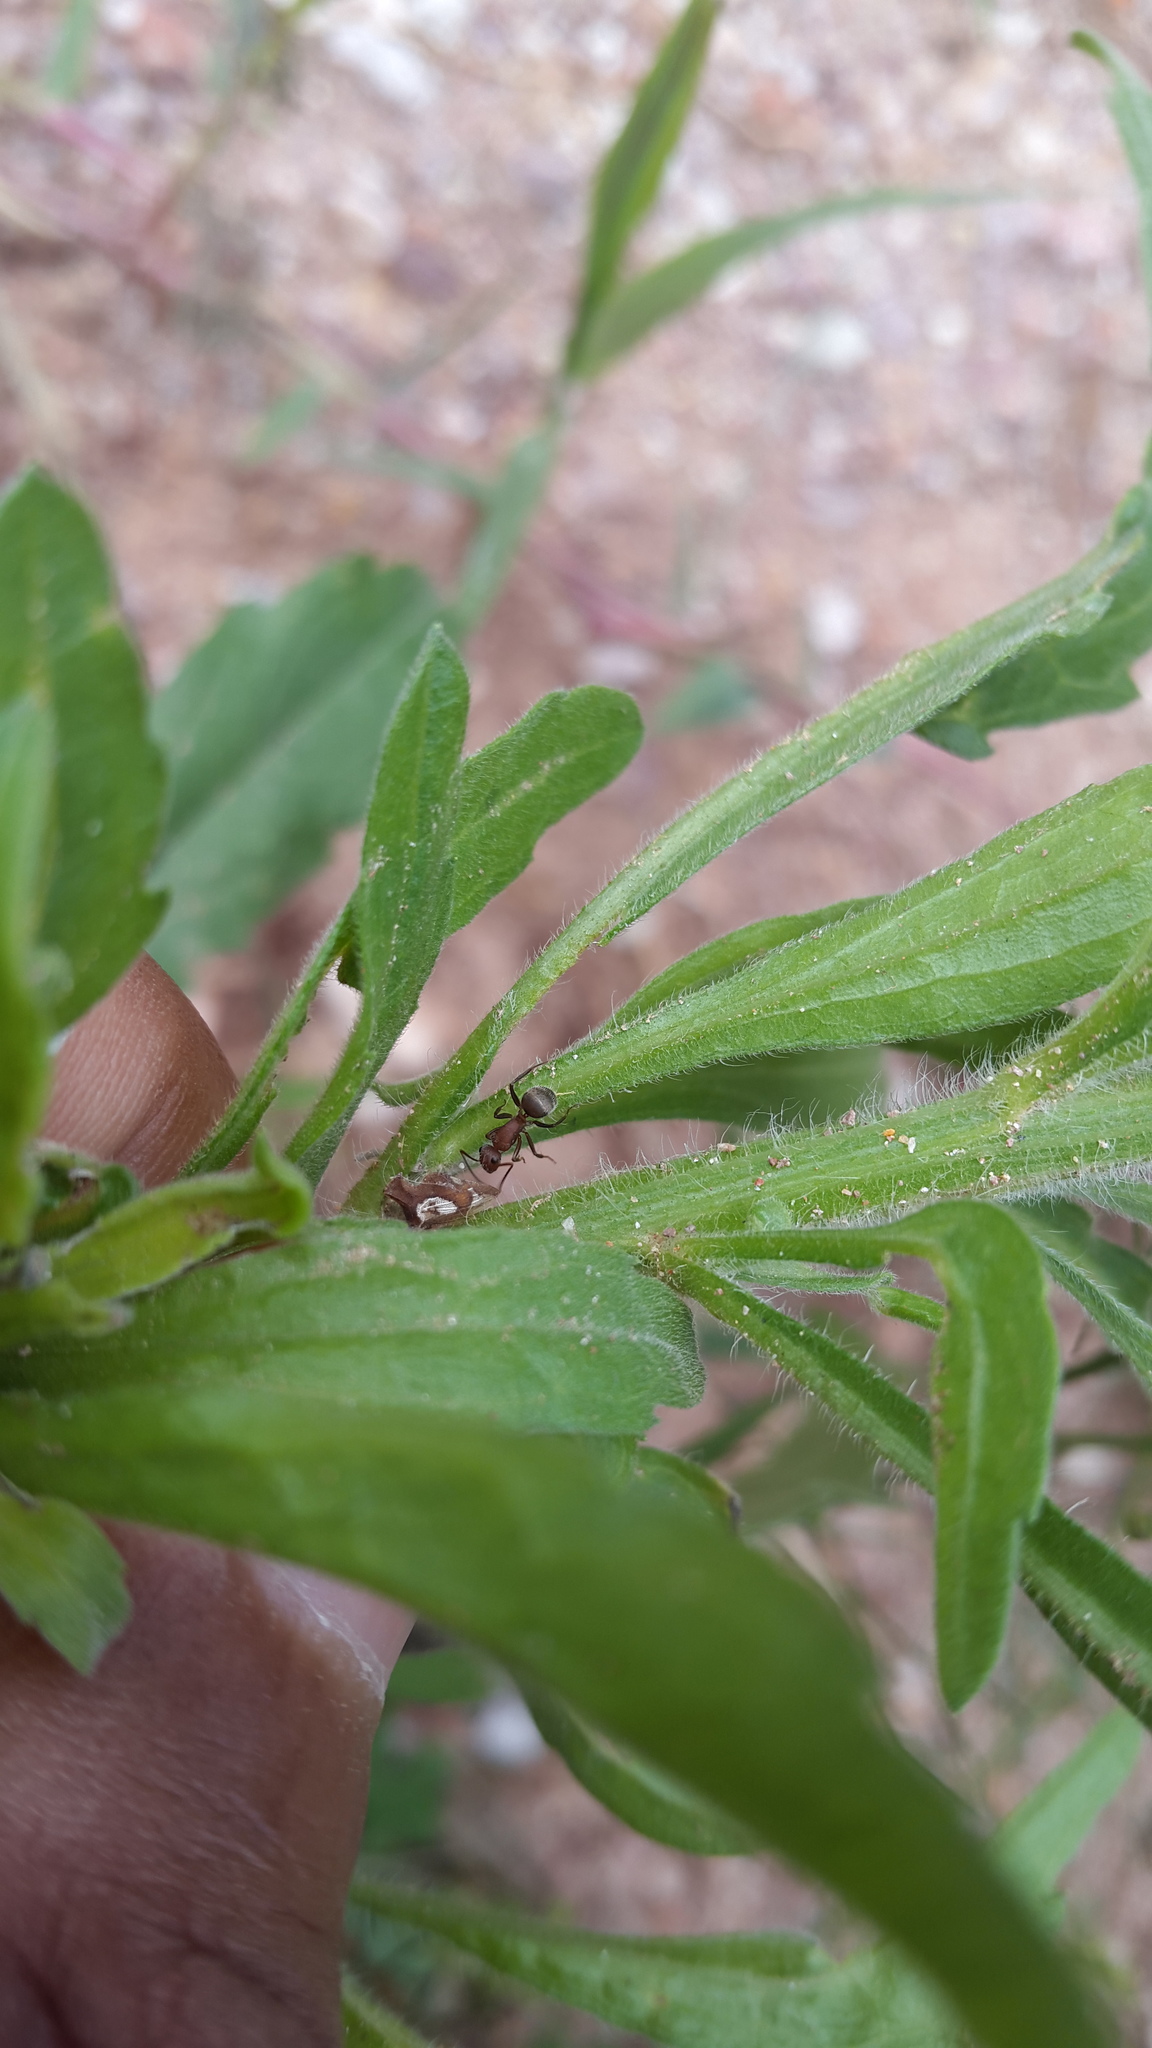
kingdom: Animalia
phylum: Arthropoda
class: Insecta
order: Hymenoptera
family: Formicidae
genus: Camponotus
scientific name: Camponotus planatus
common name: Compact carpenter ant
